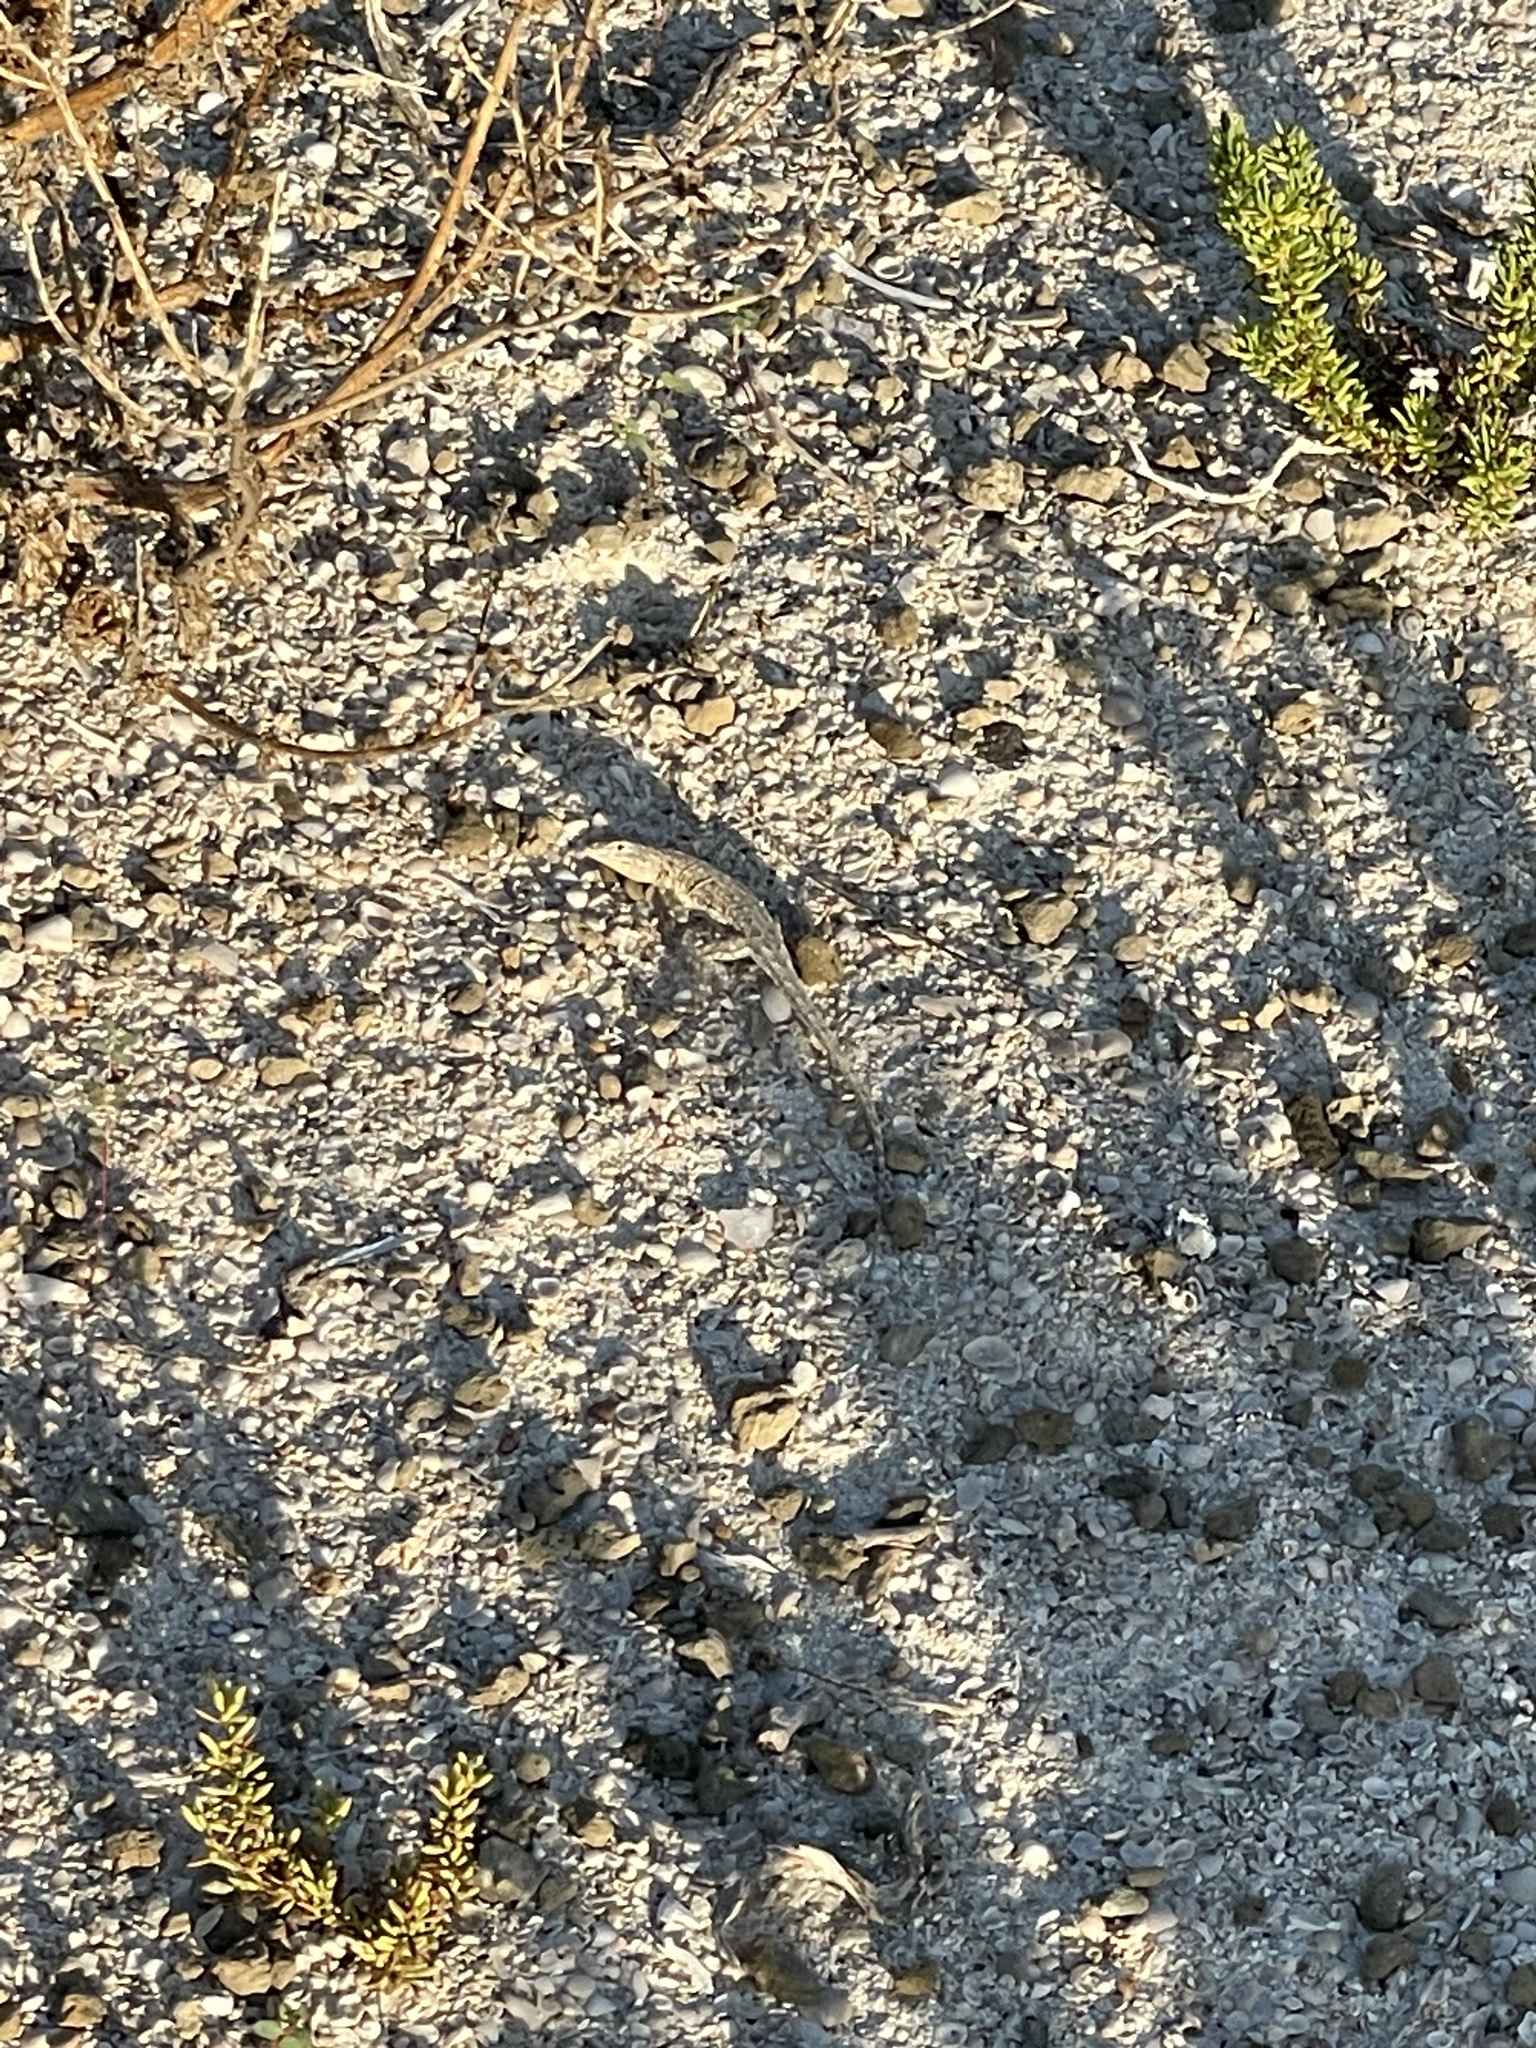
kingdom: Animalia
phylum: Chordata
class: Squamata
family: Phrynosomatidae
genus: Uta
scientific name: Uta stansburiana
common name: Side-blotched lizard
